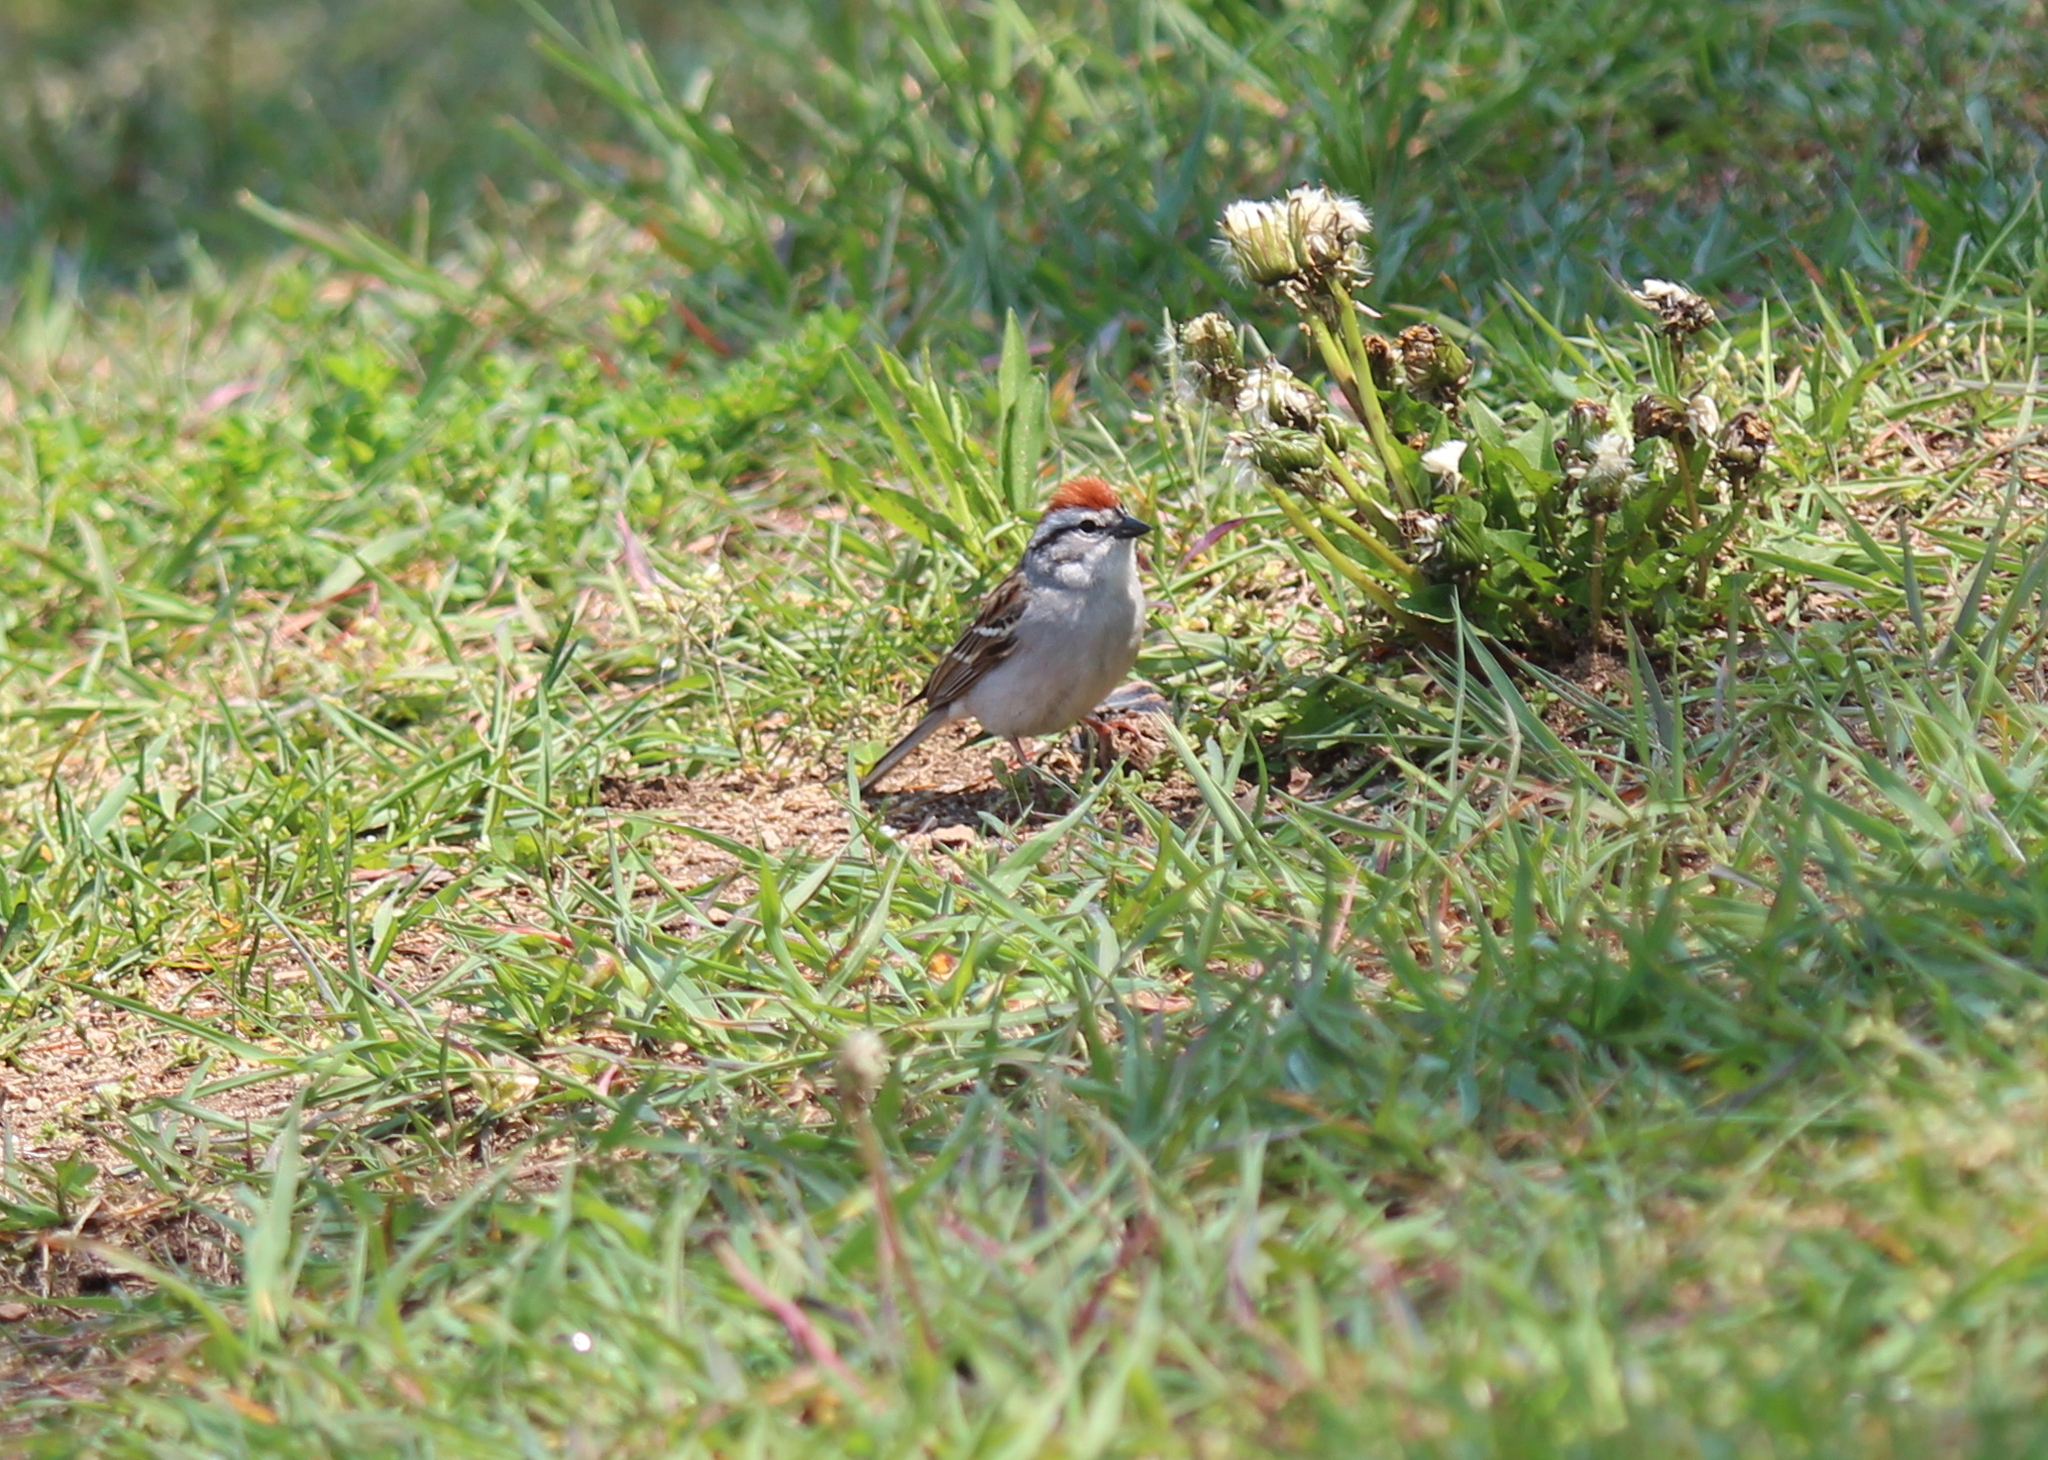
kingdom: Animalia
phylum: Chordata
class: Aves
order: Passeriformes
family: Passerellidae
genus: Spizella
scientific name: Spizella passerina
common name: Chipping sparrow
